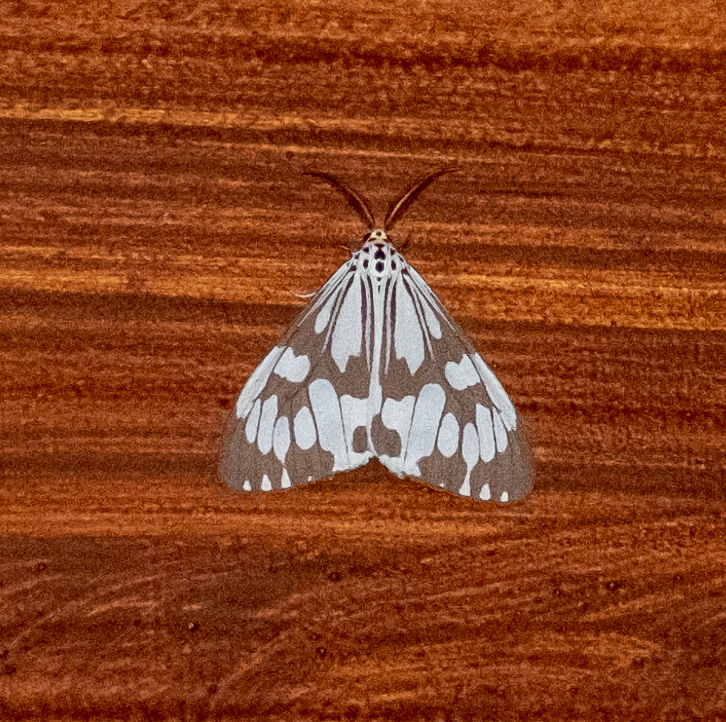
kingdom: Animalia
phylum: Arthropoda
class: Insecta
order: Lepidoptera
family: Erebidae
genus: Nyctemera
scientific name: Nyctemera adversata
